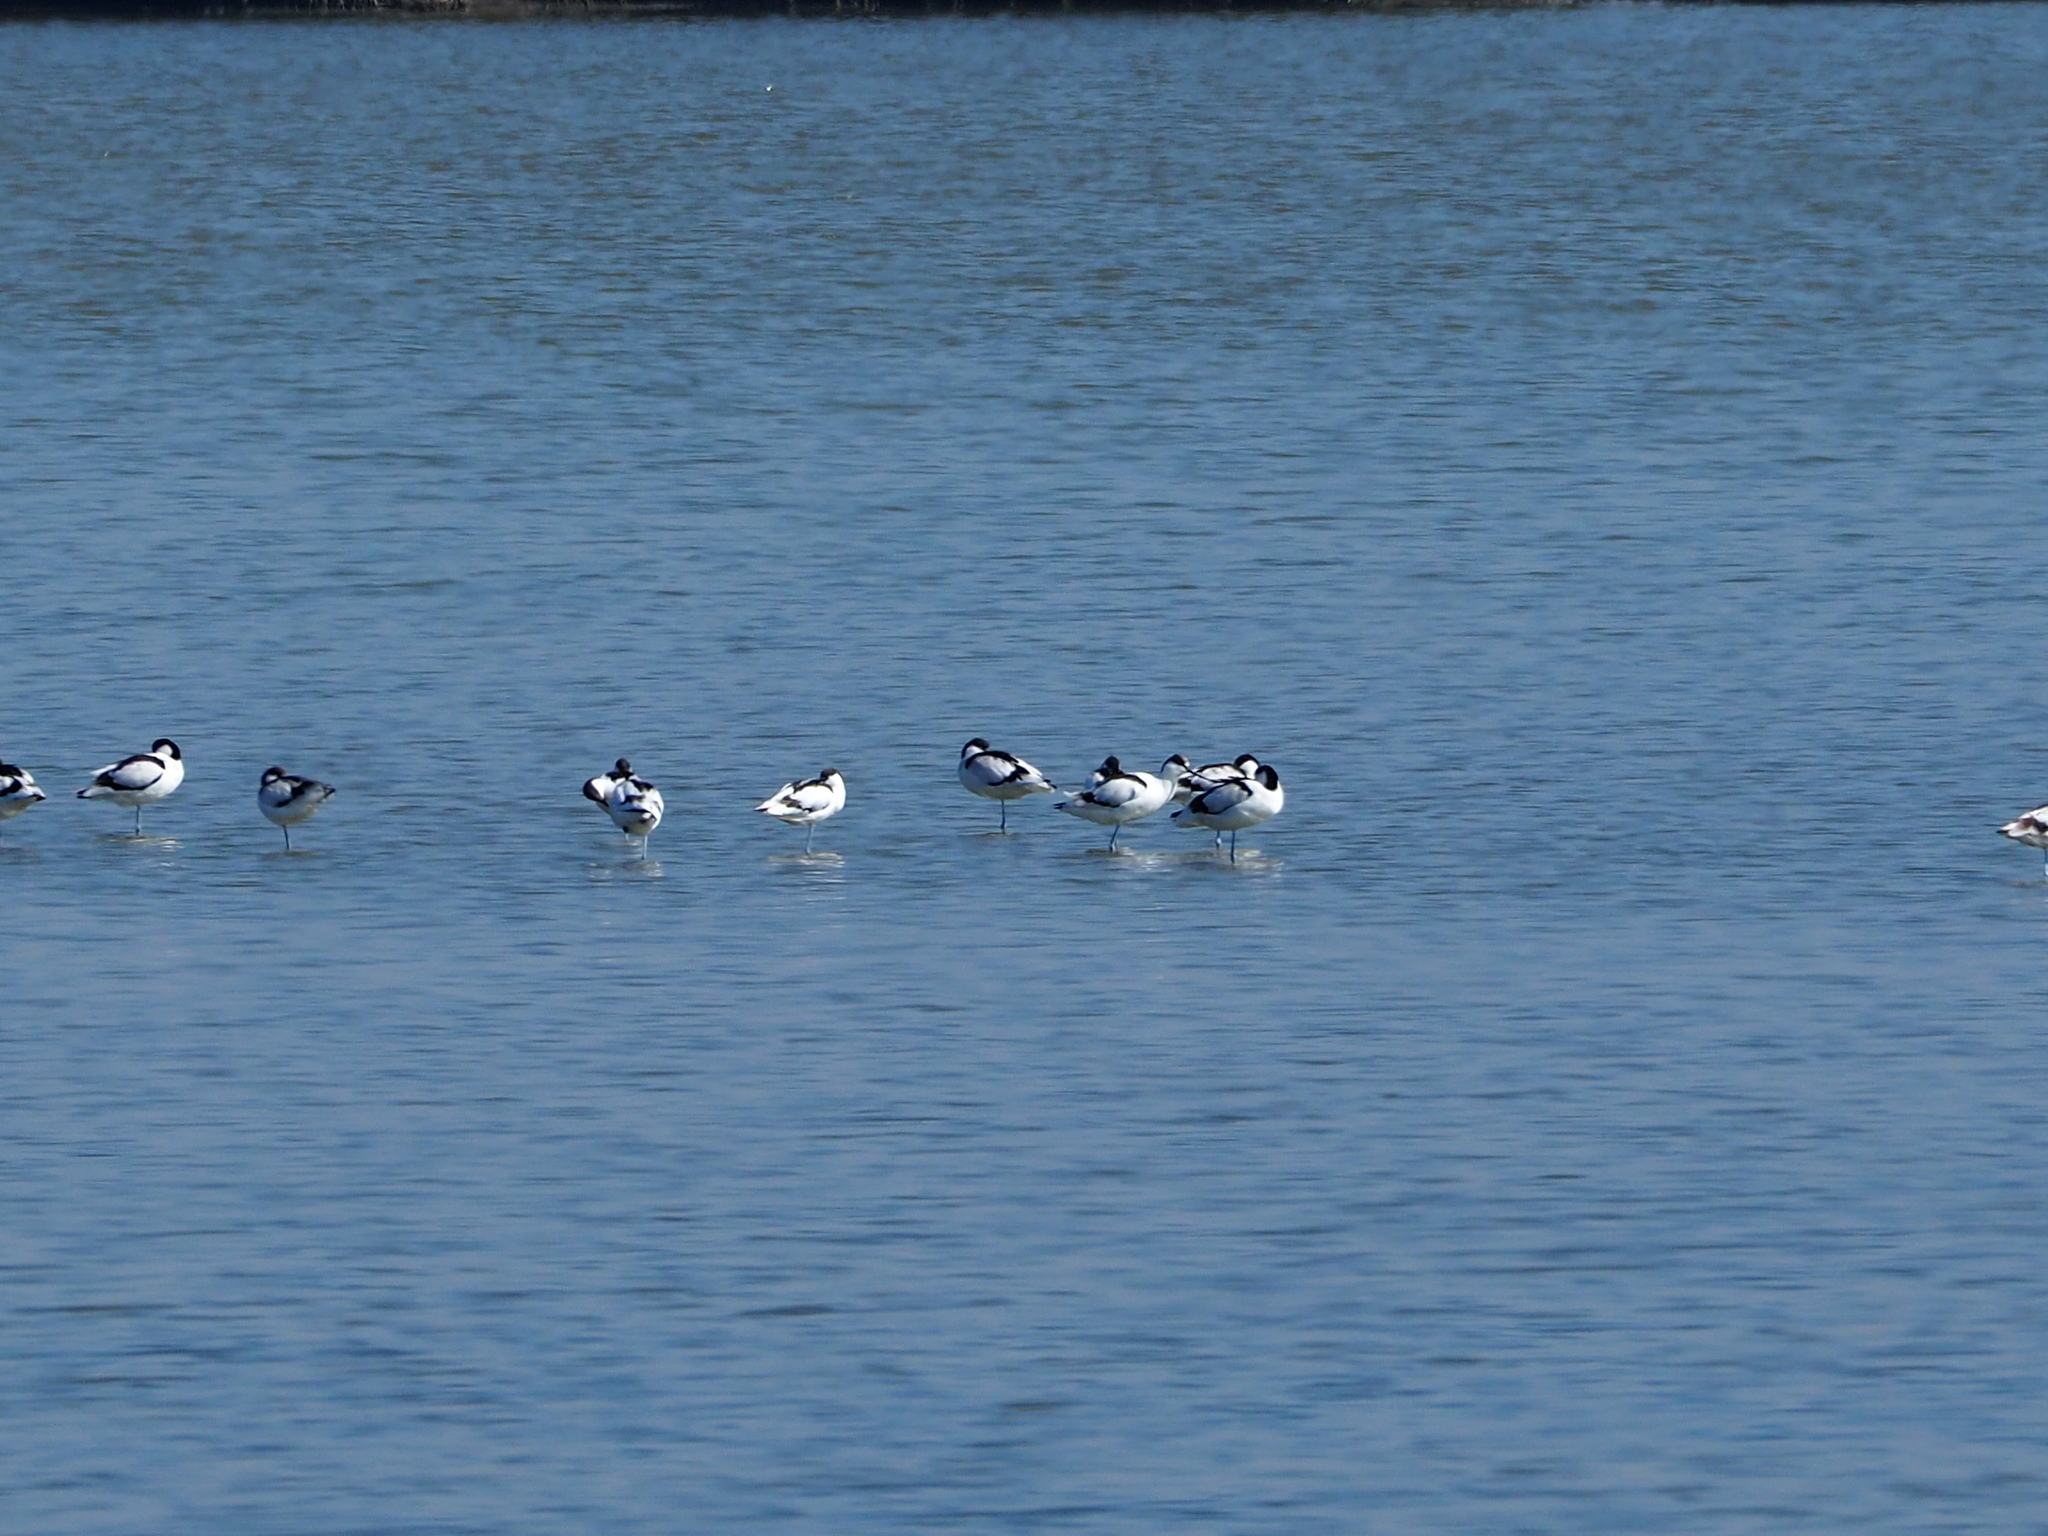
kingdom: Animalia
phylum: Chordata
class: Aves
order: Charadriiformes
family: Recurvirostridae
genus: Recurvirostra
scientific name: Recurvirostra avosetta
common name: Pied avocet
